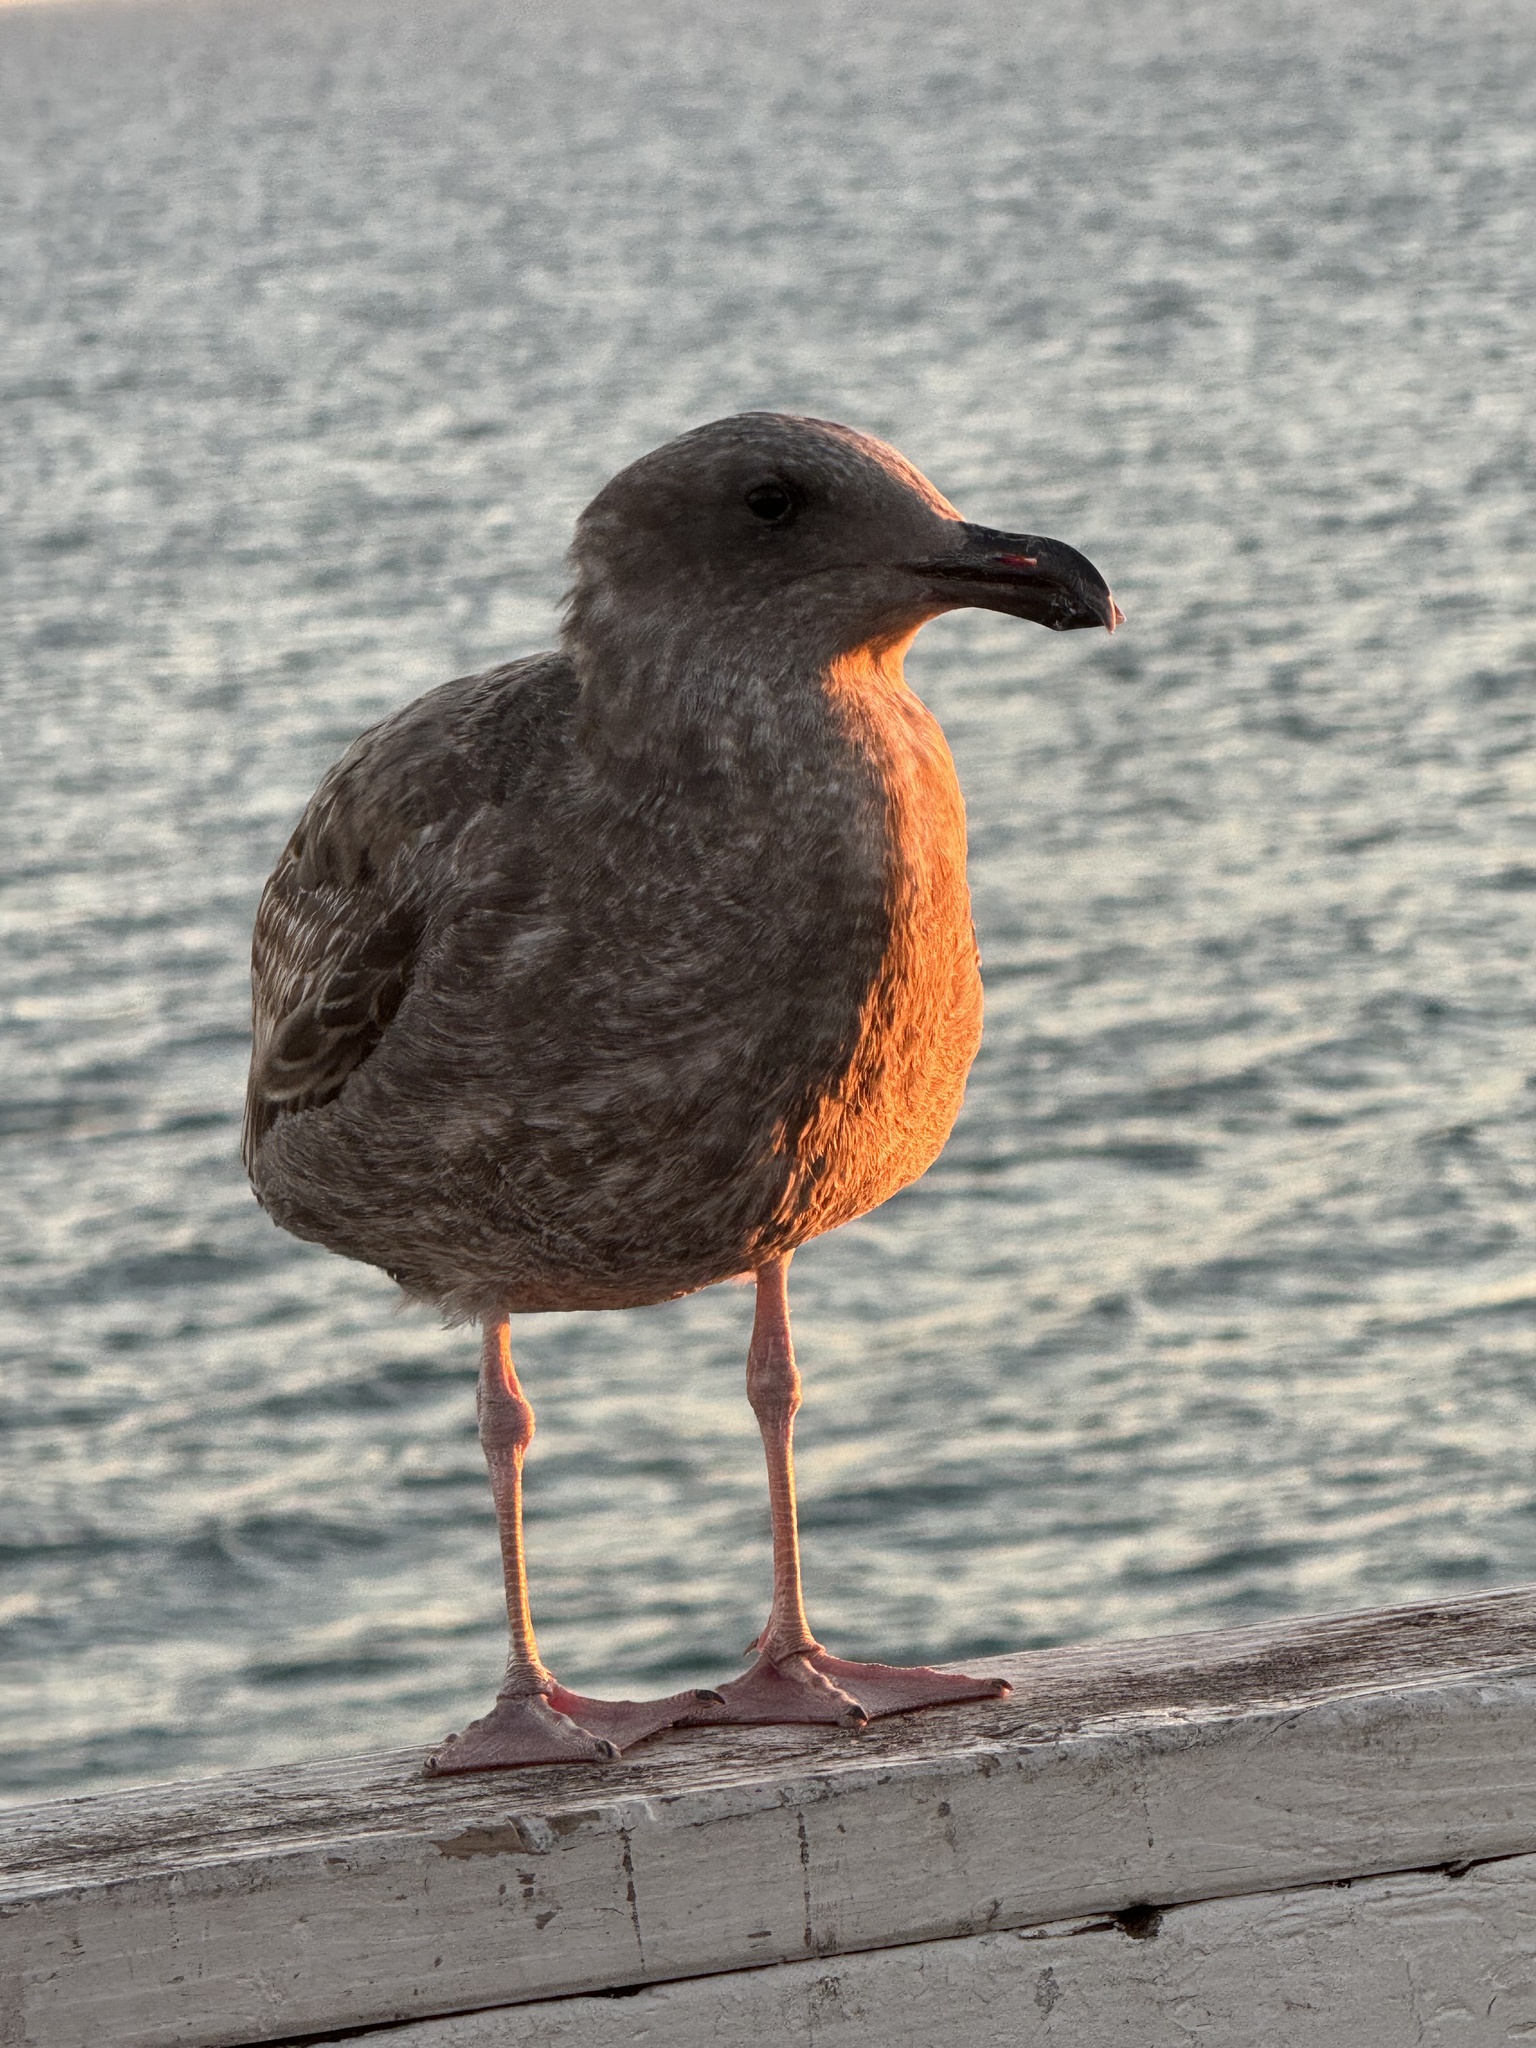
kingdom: Animalia
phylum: Chordata
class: Aves
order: Charadriiformes
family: Laridae
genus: Larus
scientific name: Larus occidentalis
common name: Western gull
